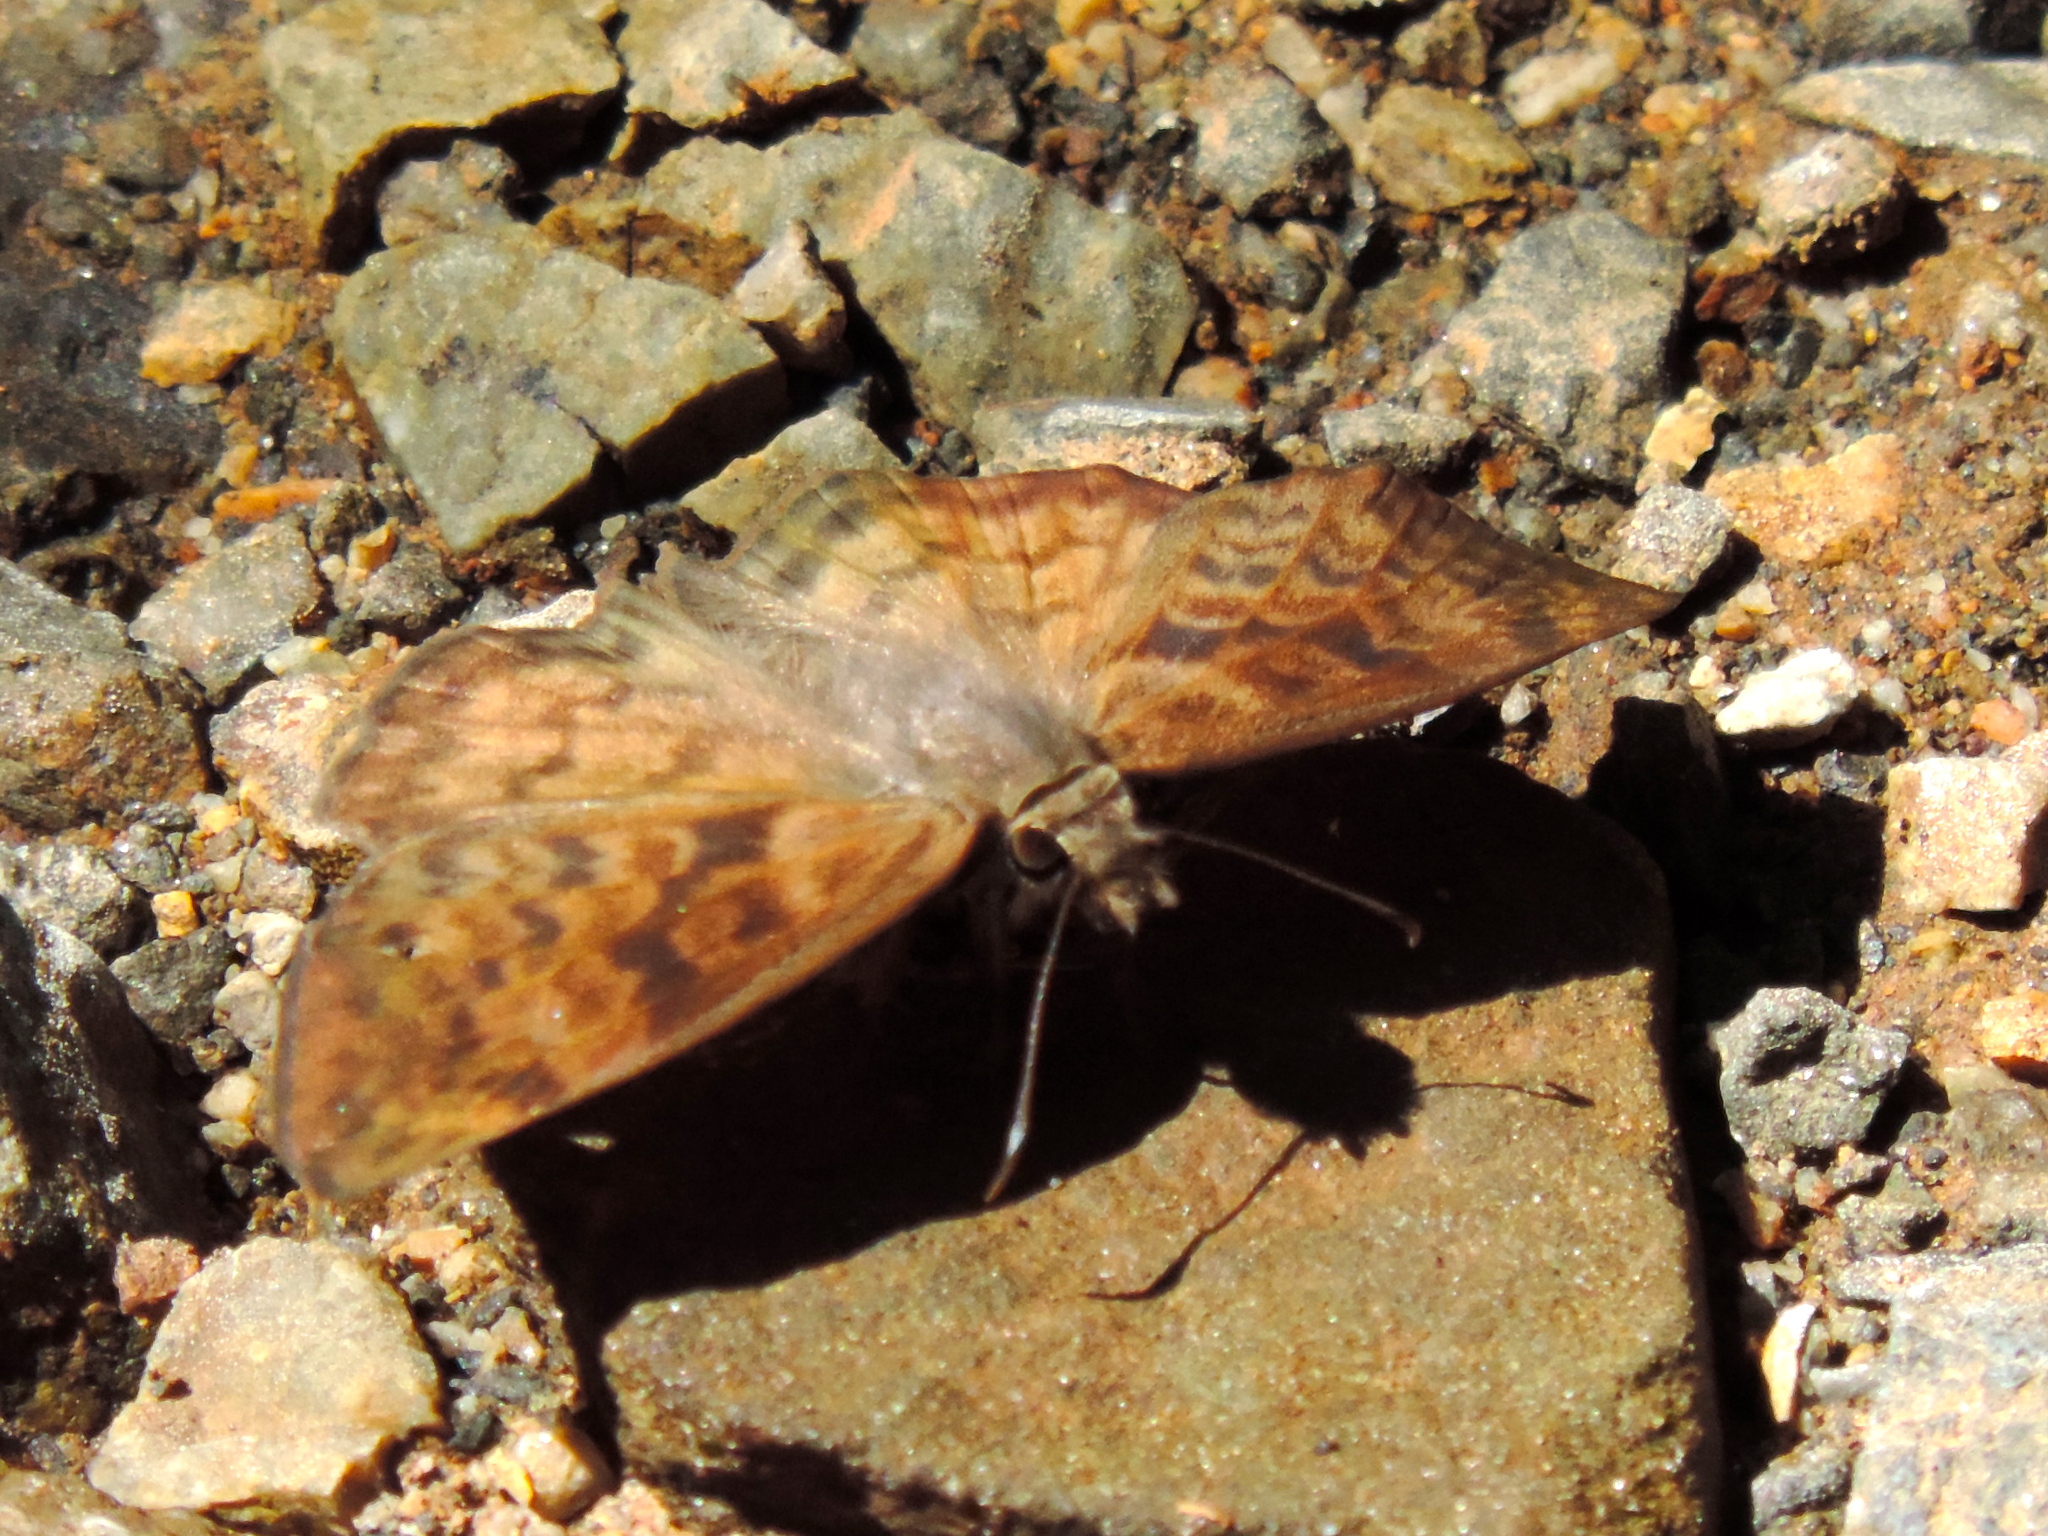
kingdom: Animalia
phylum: Arthropoda
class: Insecta
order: Lepidoptera
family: Hesperiidae
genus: Pyrginae
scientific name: Pyrginae
